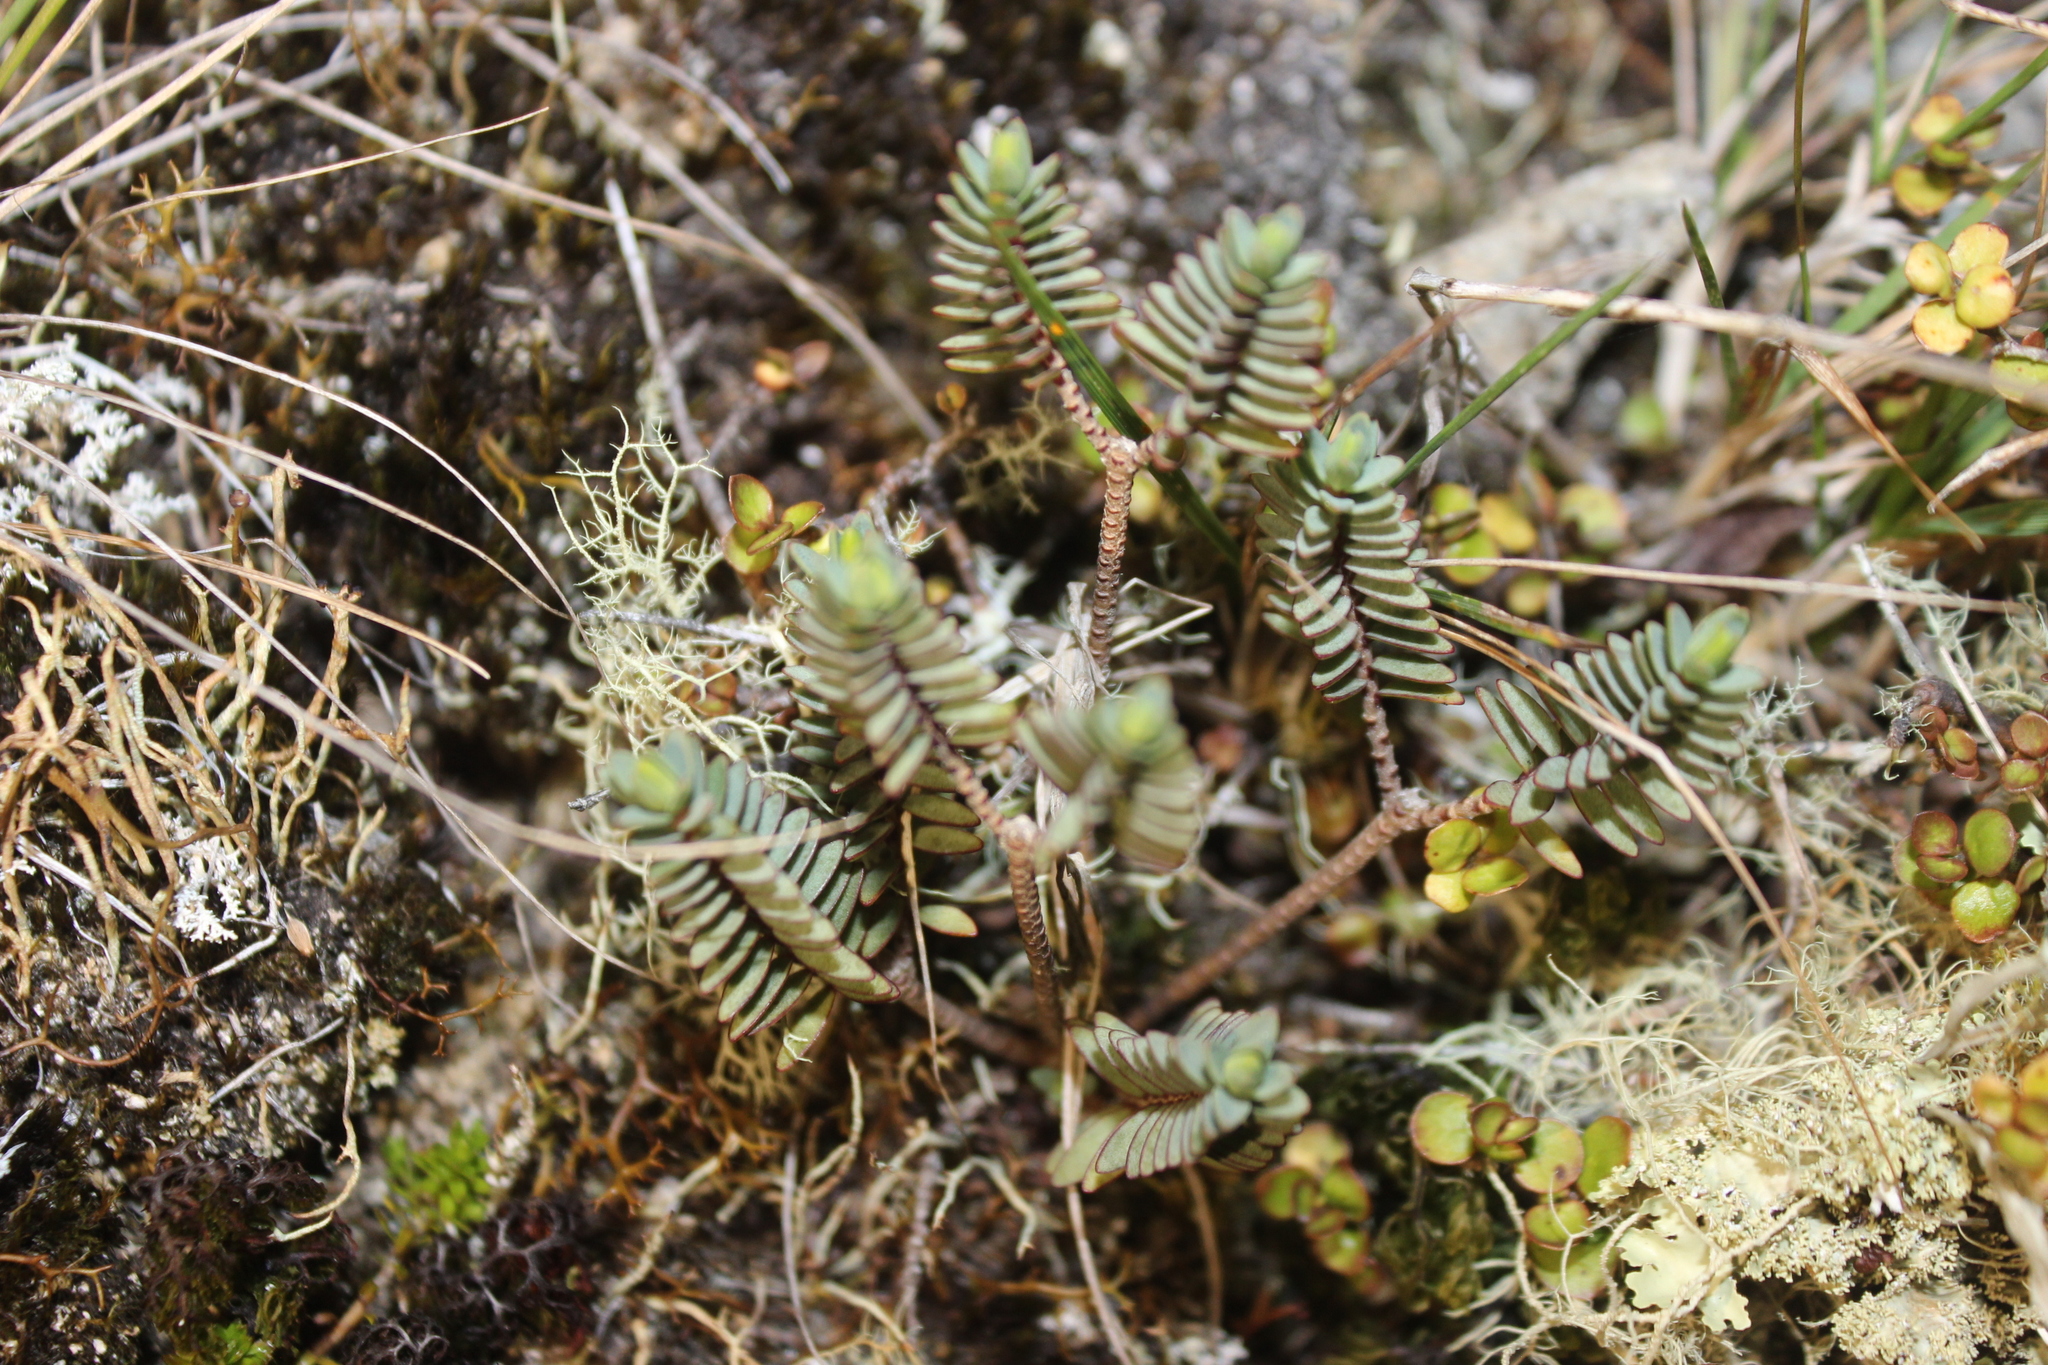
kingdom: Plantae
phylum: Tracheophyta
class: Magnoliopsida
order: Malvales
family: Thymelaeaceae
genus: Pimelea
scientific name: Pimelea prostrata
